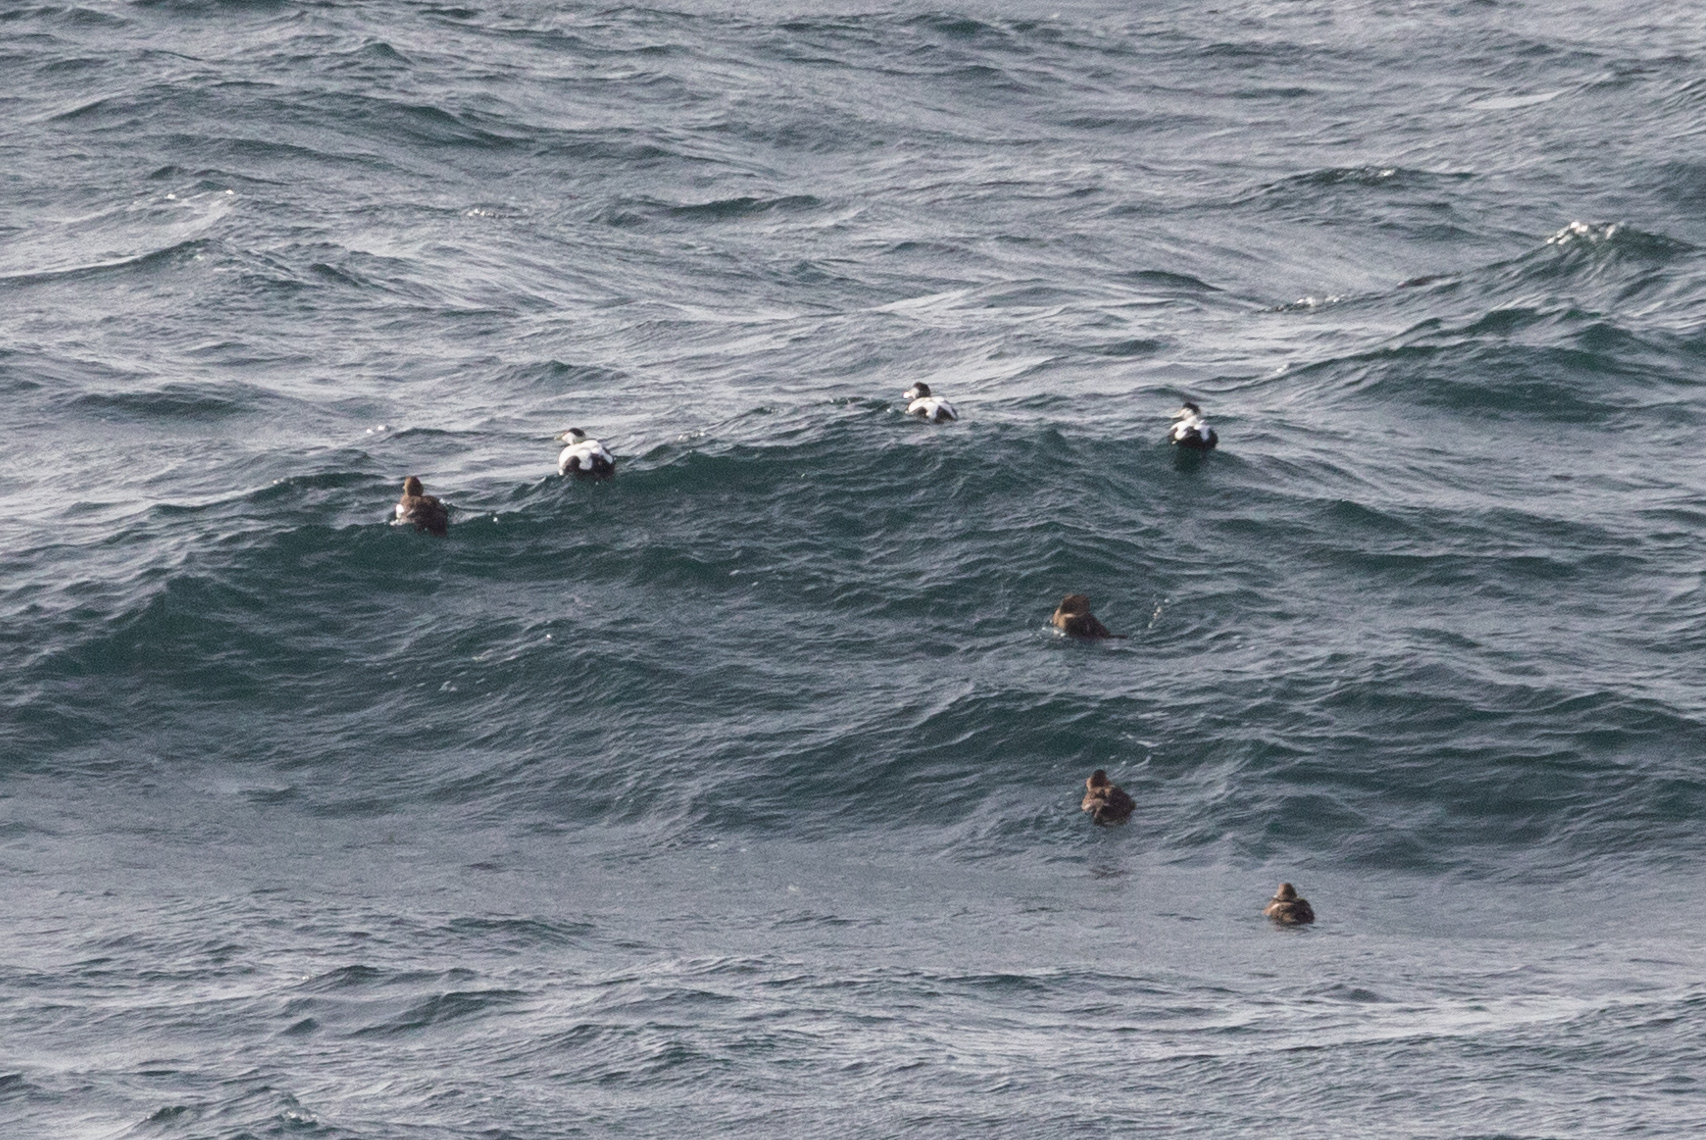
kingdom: Animalia
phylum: Chordata
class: Aves
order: Anseriformes
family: Anatidae
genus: Somateria
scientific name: Somateria mollissima
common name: Common eider
